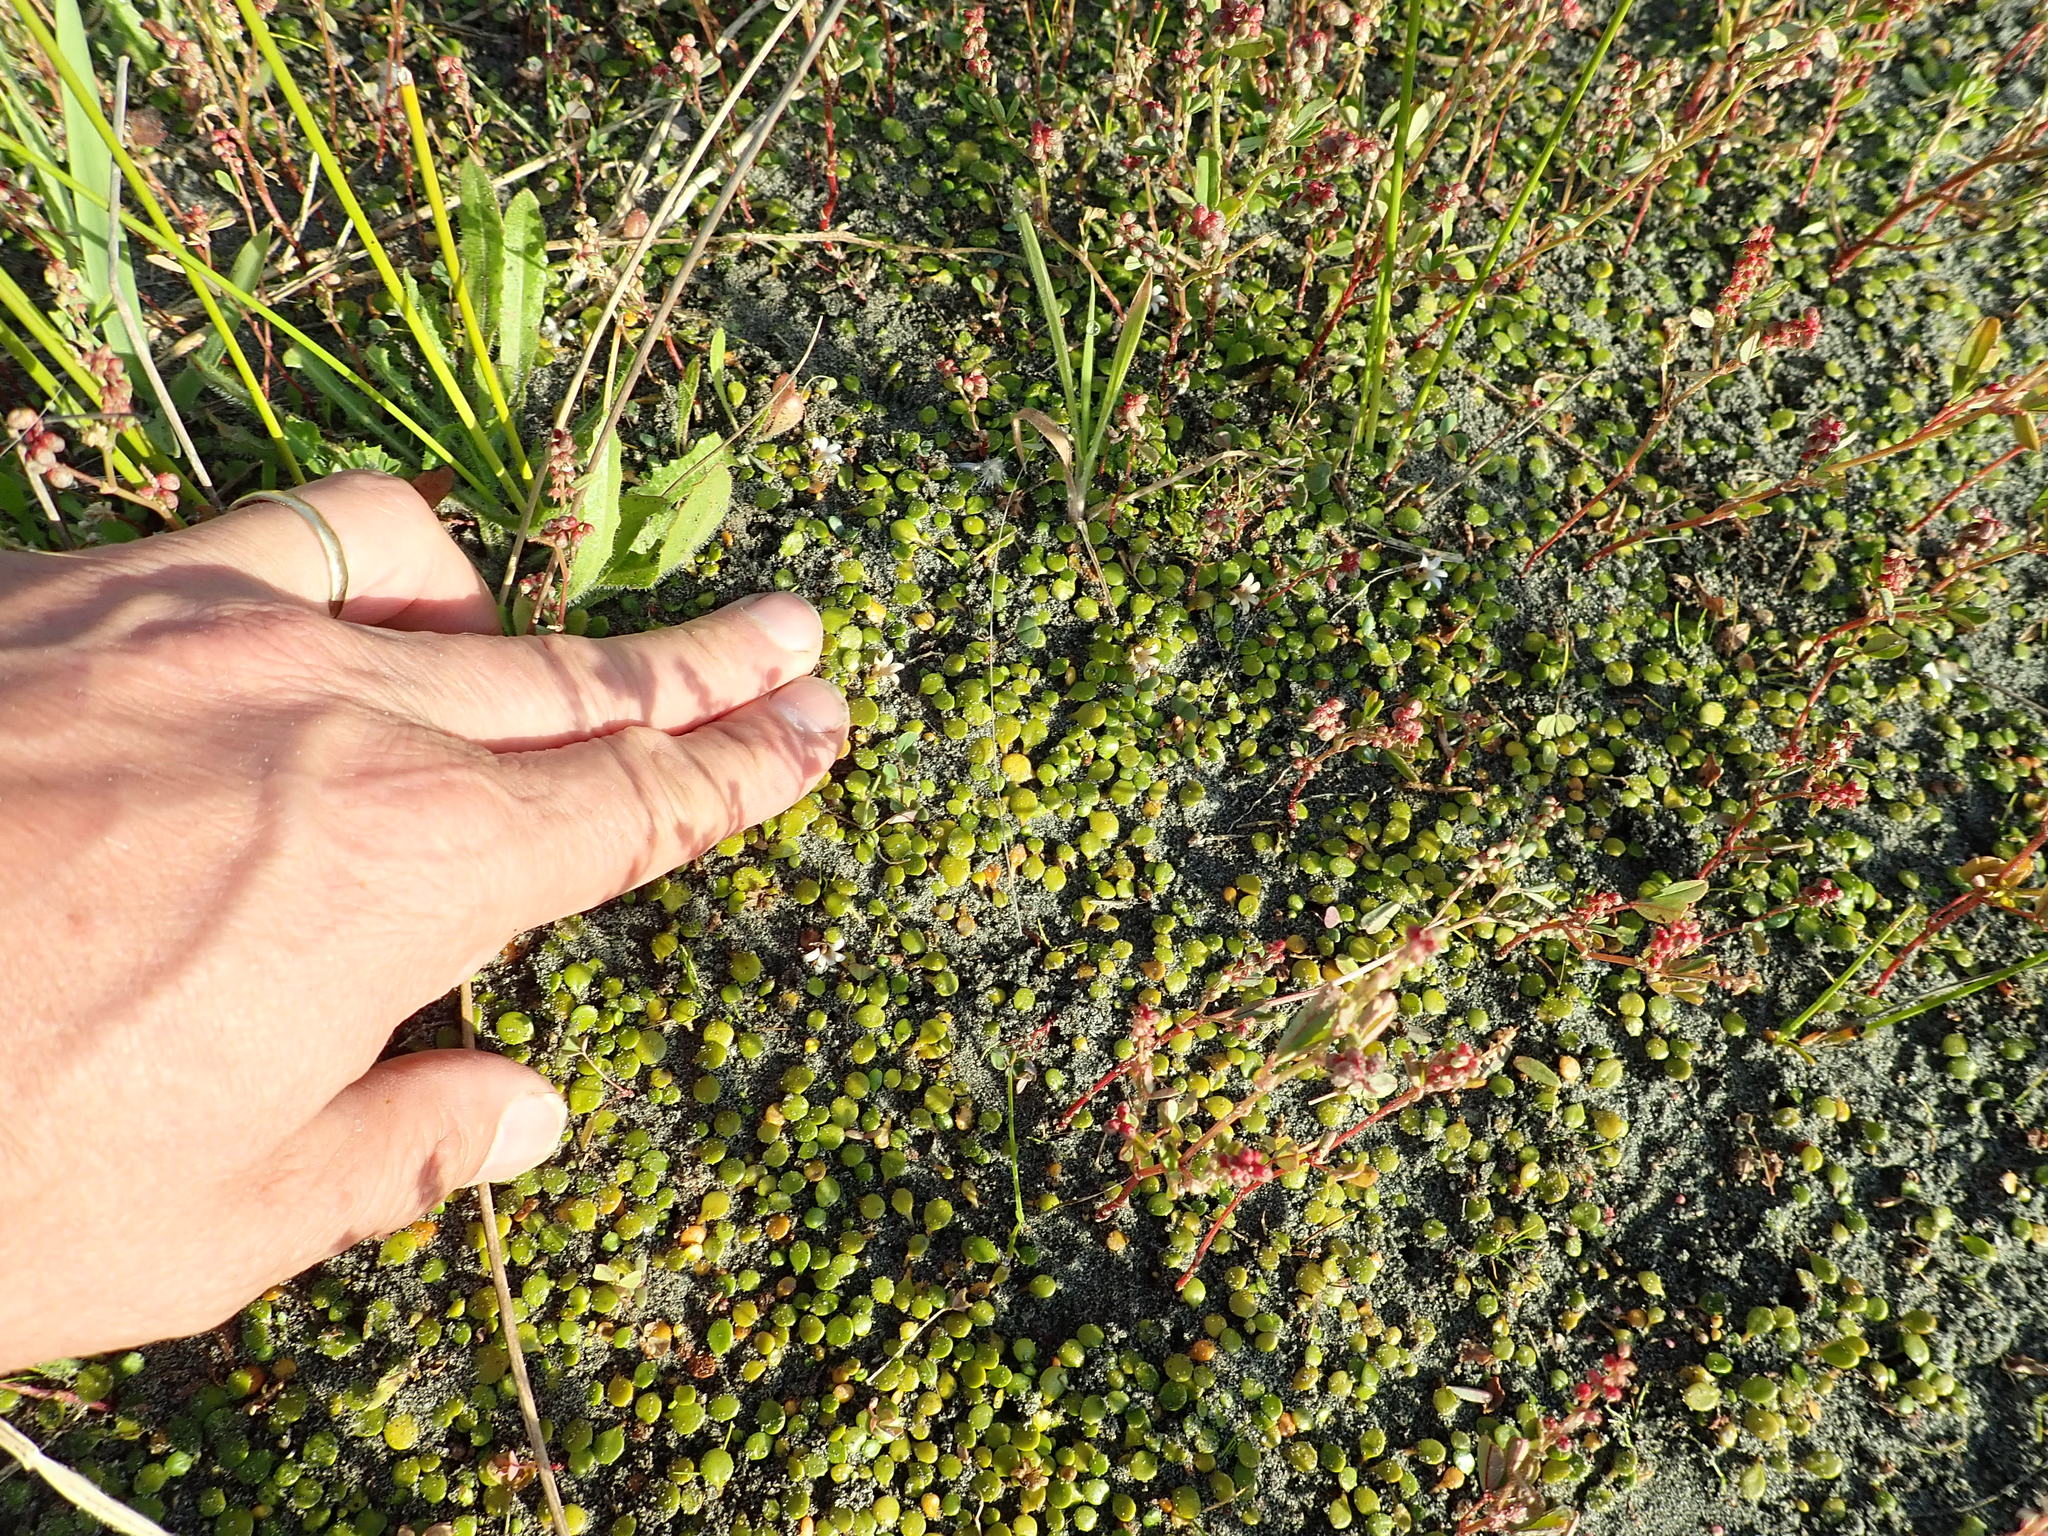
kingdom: Plantae
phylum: Tracheophyta
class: Magnoliopsida
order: Asterales
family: Goodeniaceae
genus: Goodenia
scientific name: Goodenia heenanii
